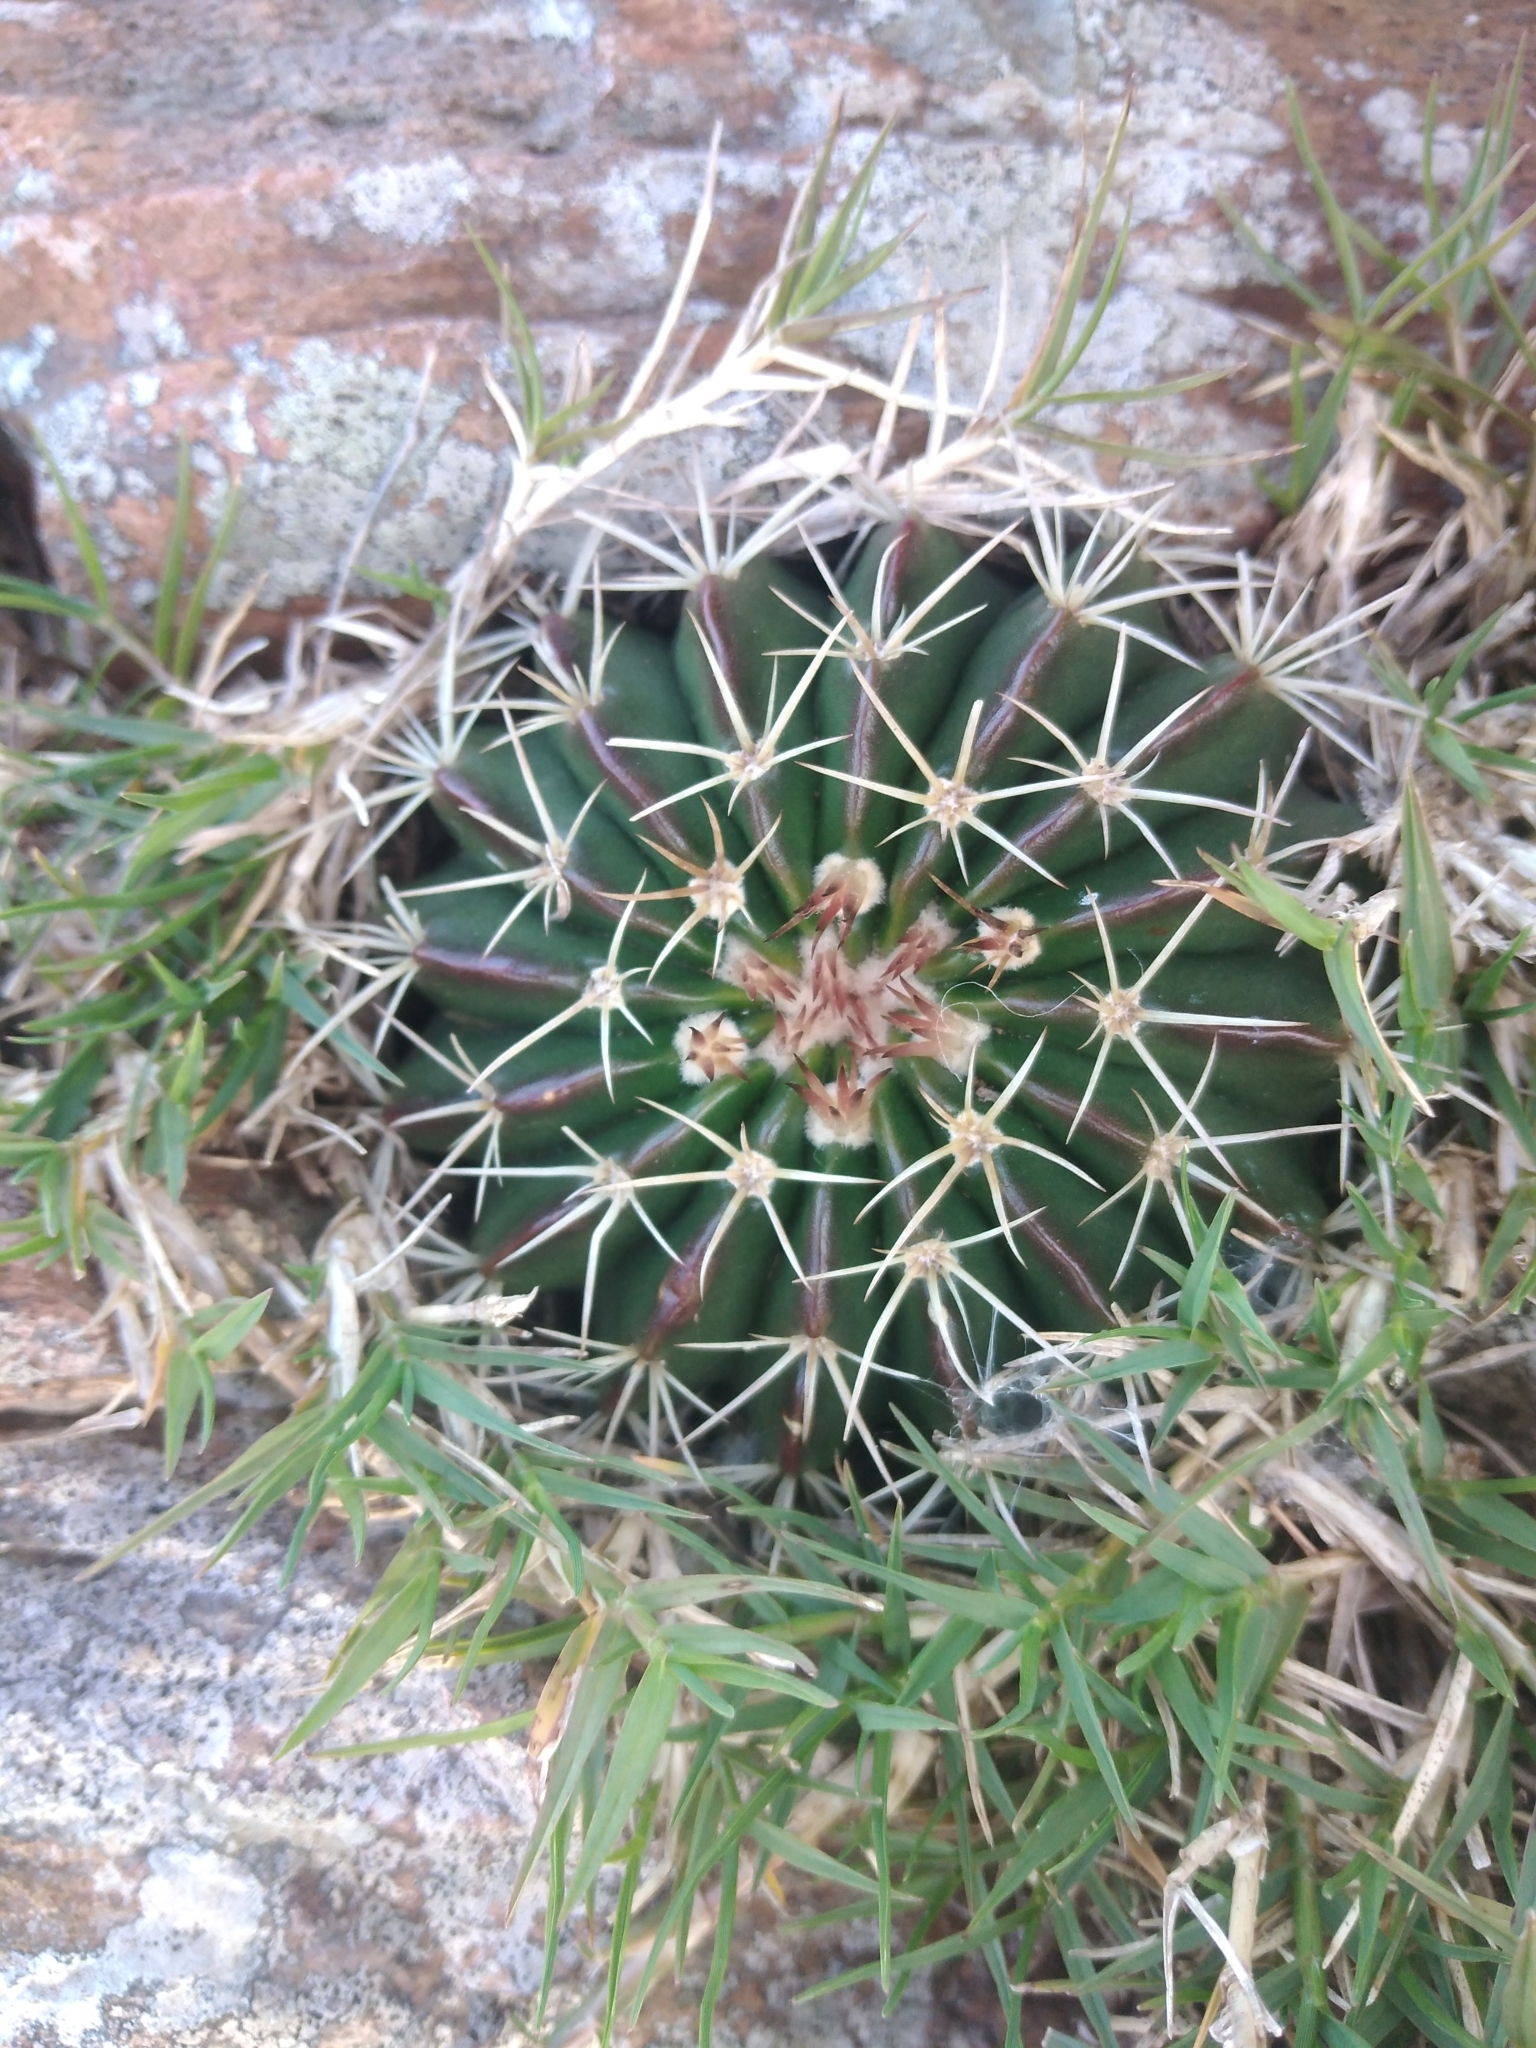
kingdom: Plantae
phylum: Tracheophyta
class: Magnoliopsida
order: Caryophyllales
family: Cactaceae
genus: Parodia
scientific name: Parodia erinacea
